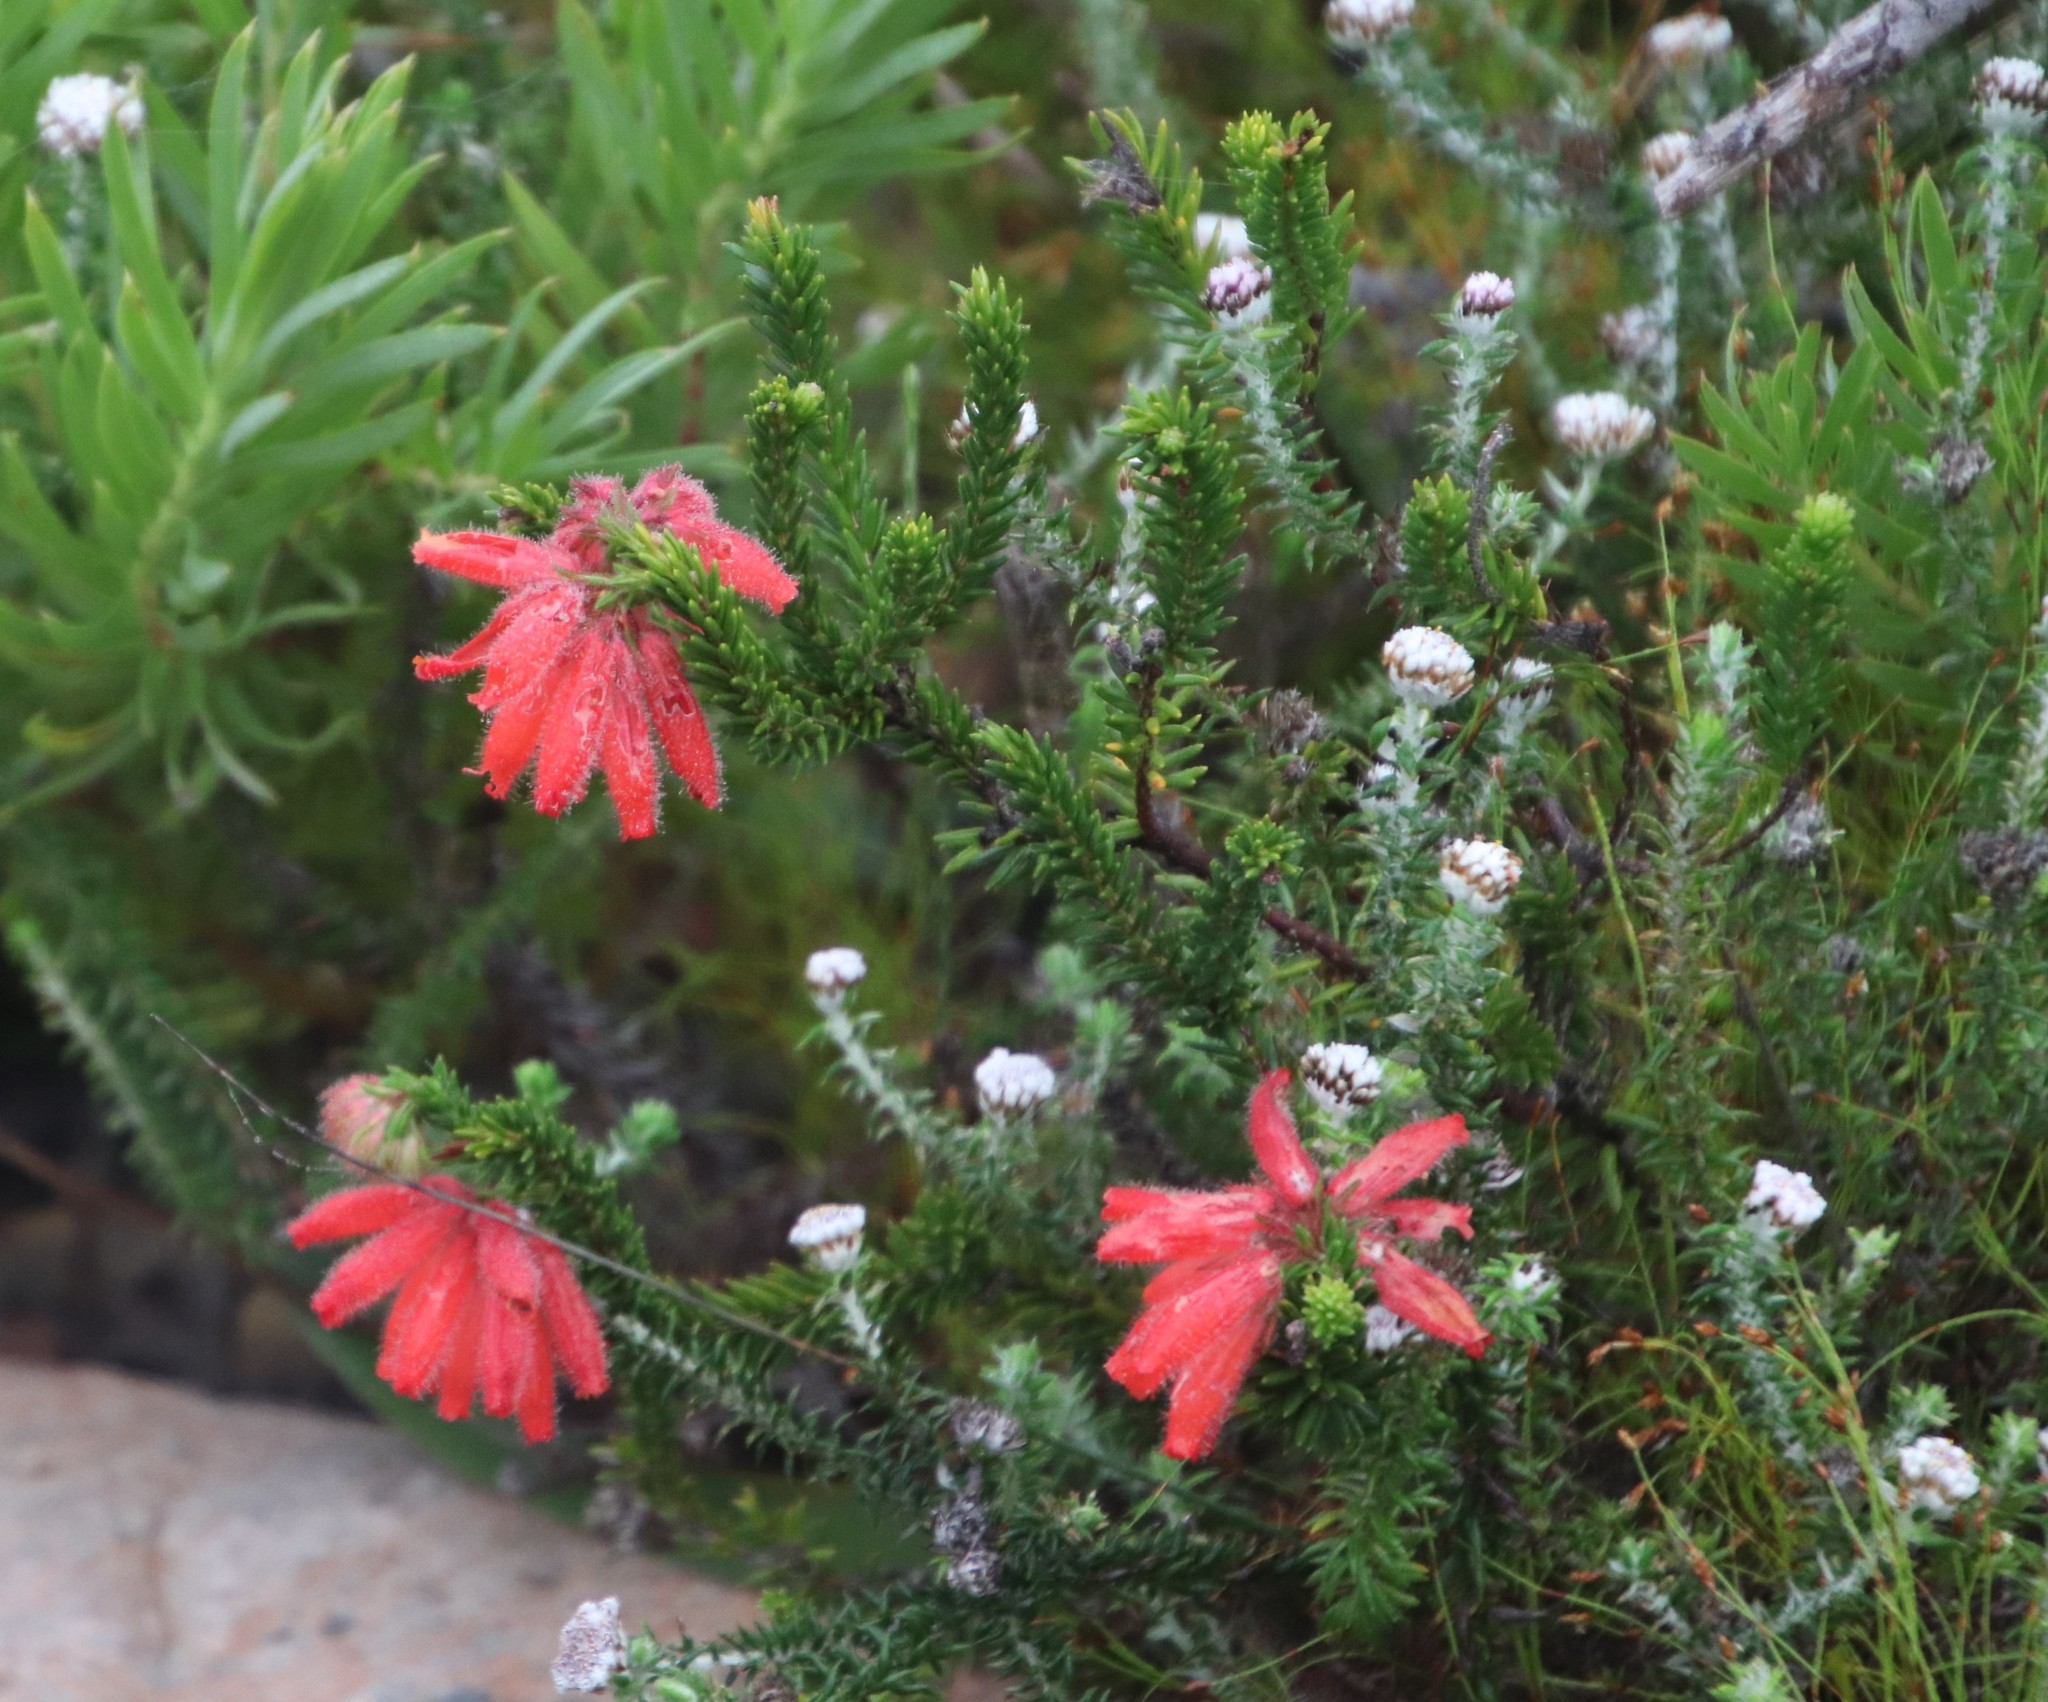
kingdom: Plantae
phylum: Tracheophyta
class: Magnoliopsida
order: Ericales
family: Ericaceae
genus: Erica
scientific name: Erica cerinthoides
